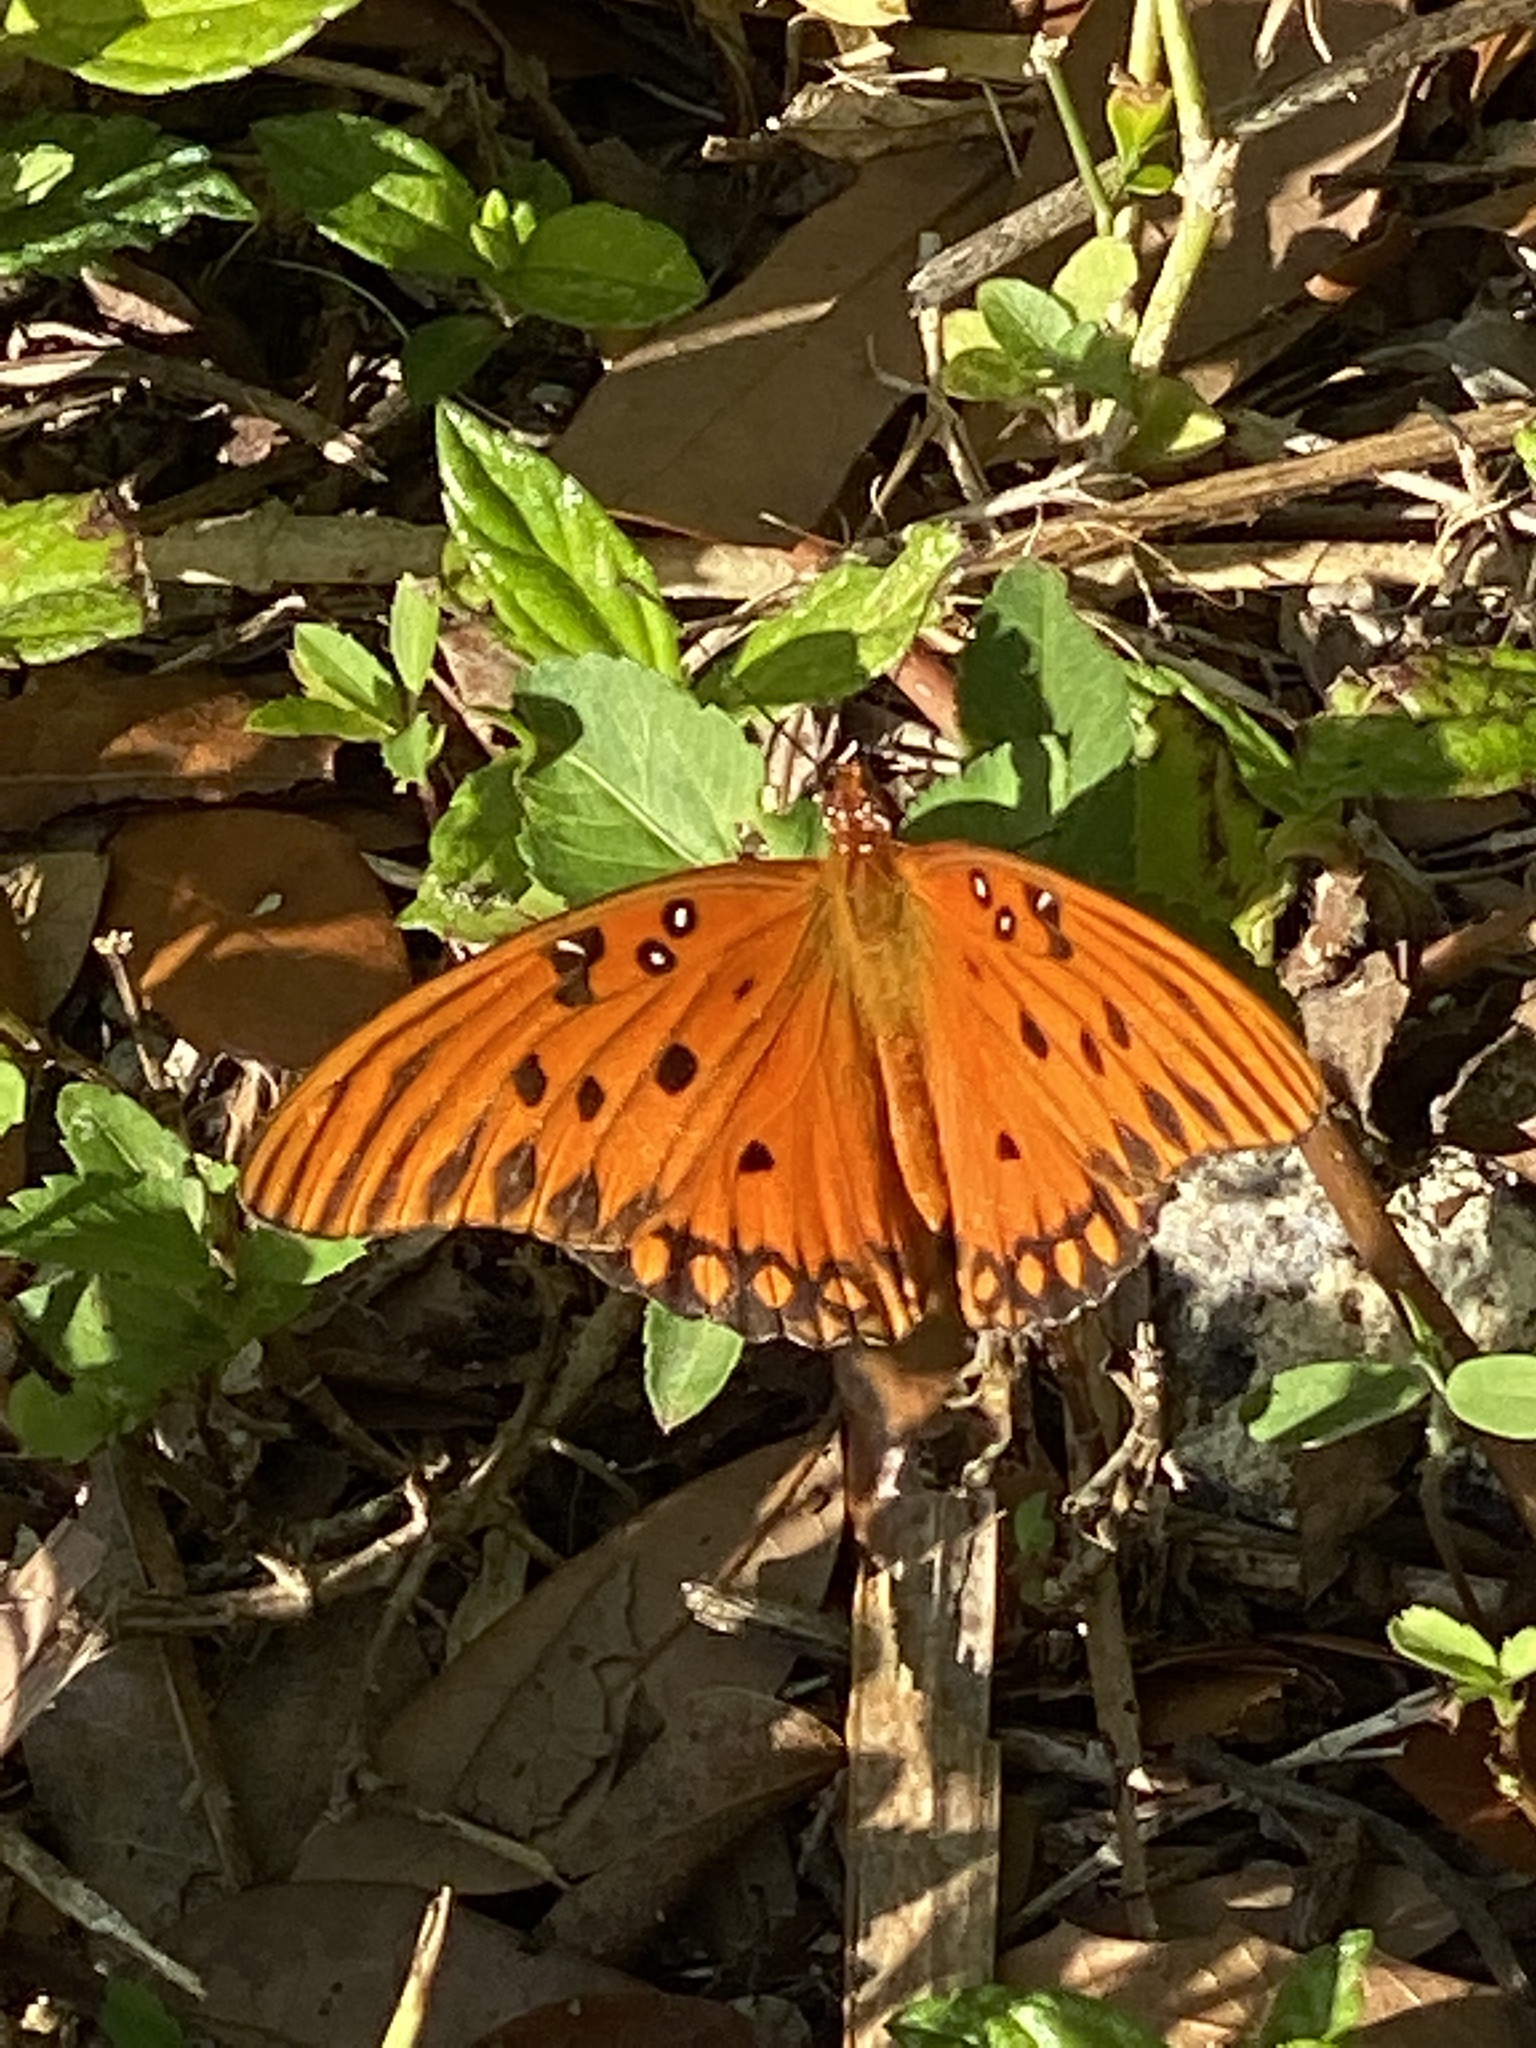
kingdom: Animalia
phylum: Arthropoda
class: Insecta
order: Lepidoptera
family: Nymphalidae
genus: Dione
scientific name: Dione vanillae
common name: Gulf fritillary
